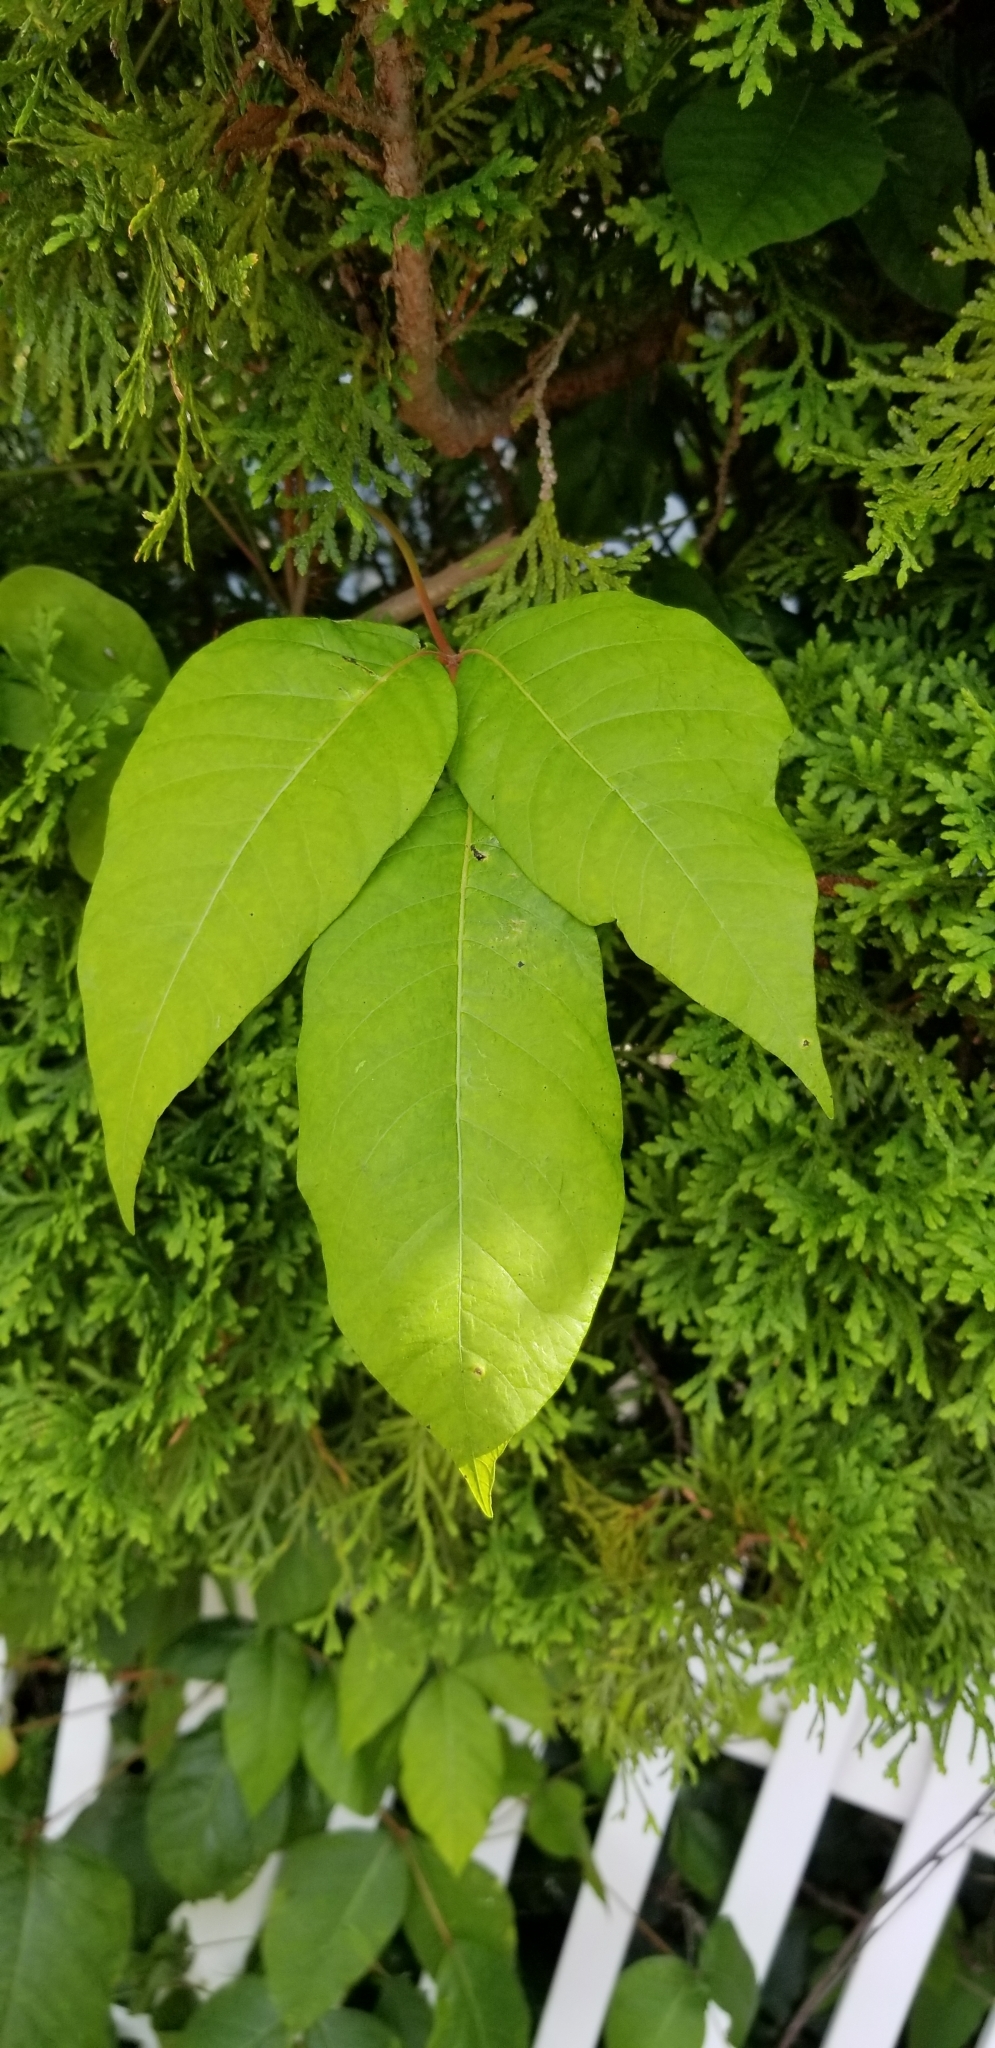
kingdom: Plantae
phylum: Tracheophyta
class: Magnoliopsida
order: Sapindales
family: Anacardiaceae
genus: Toxicodendron
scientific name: Toxicodendron radicans
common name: Poison ivy
